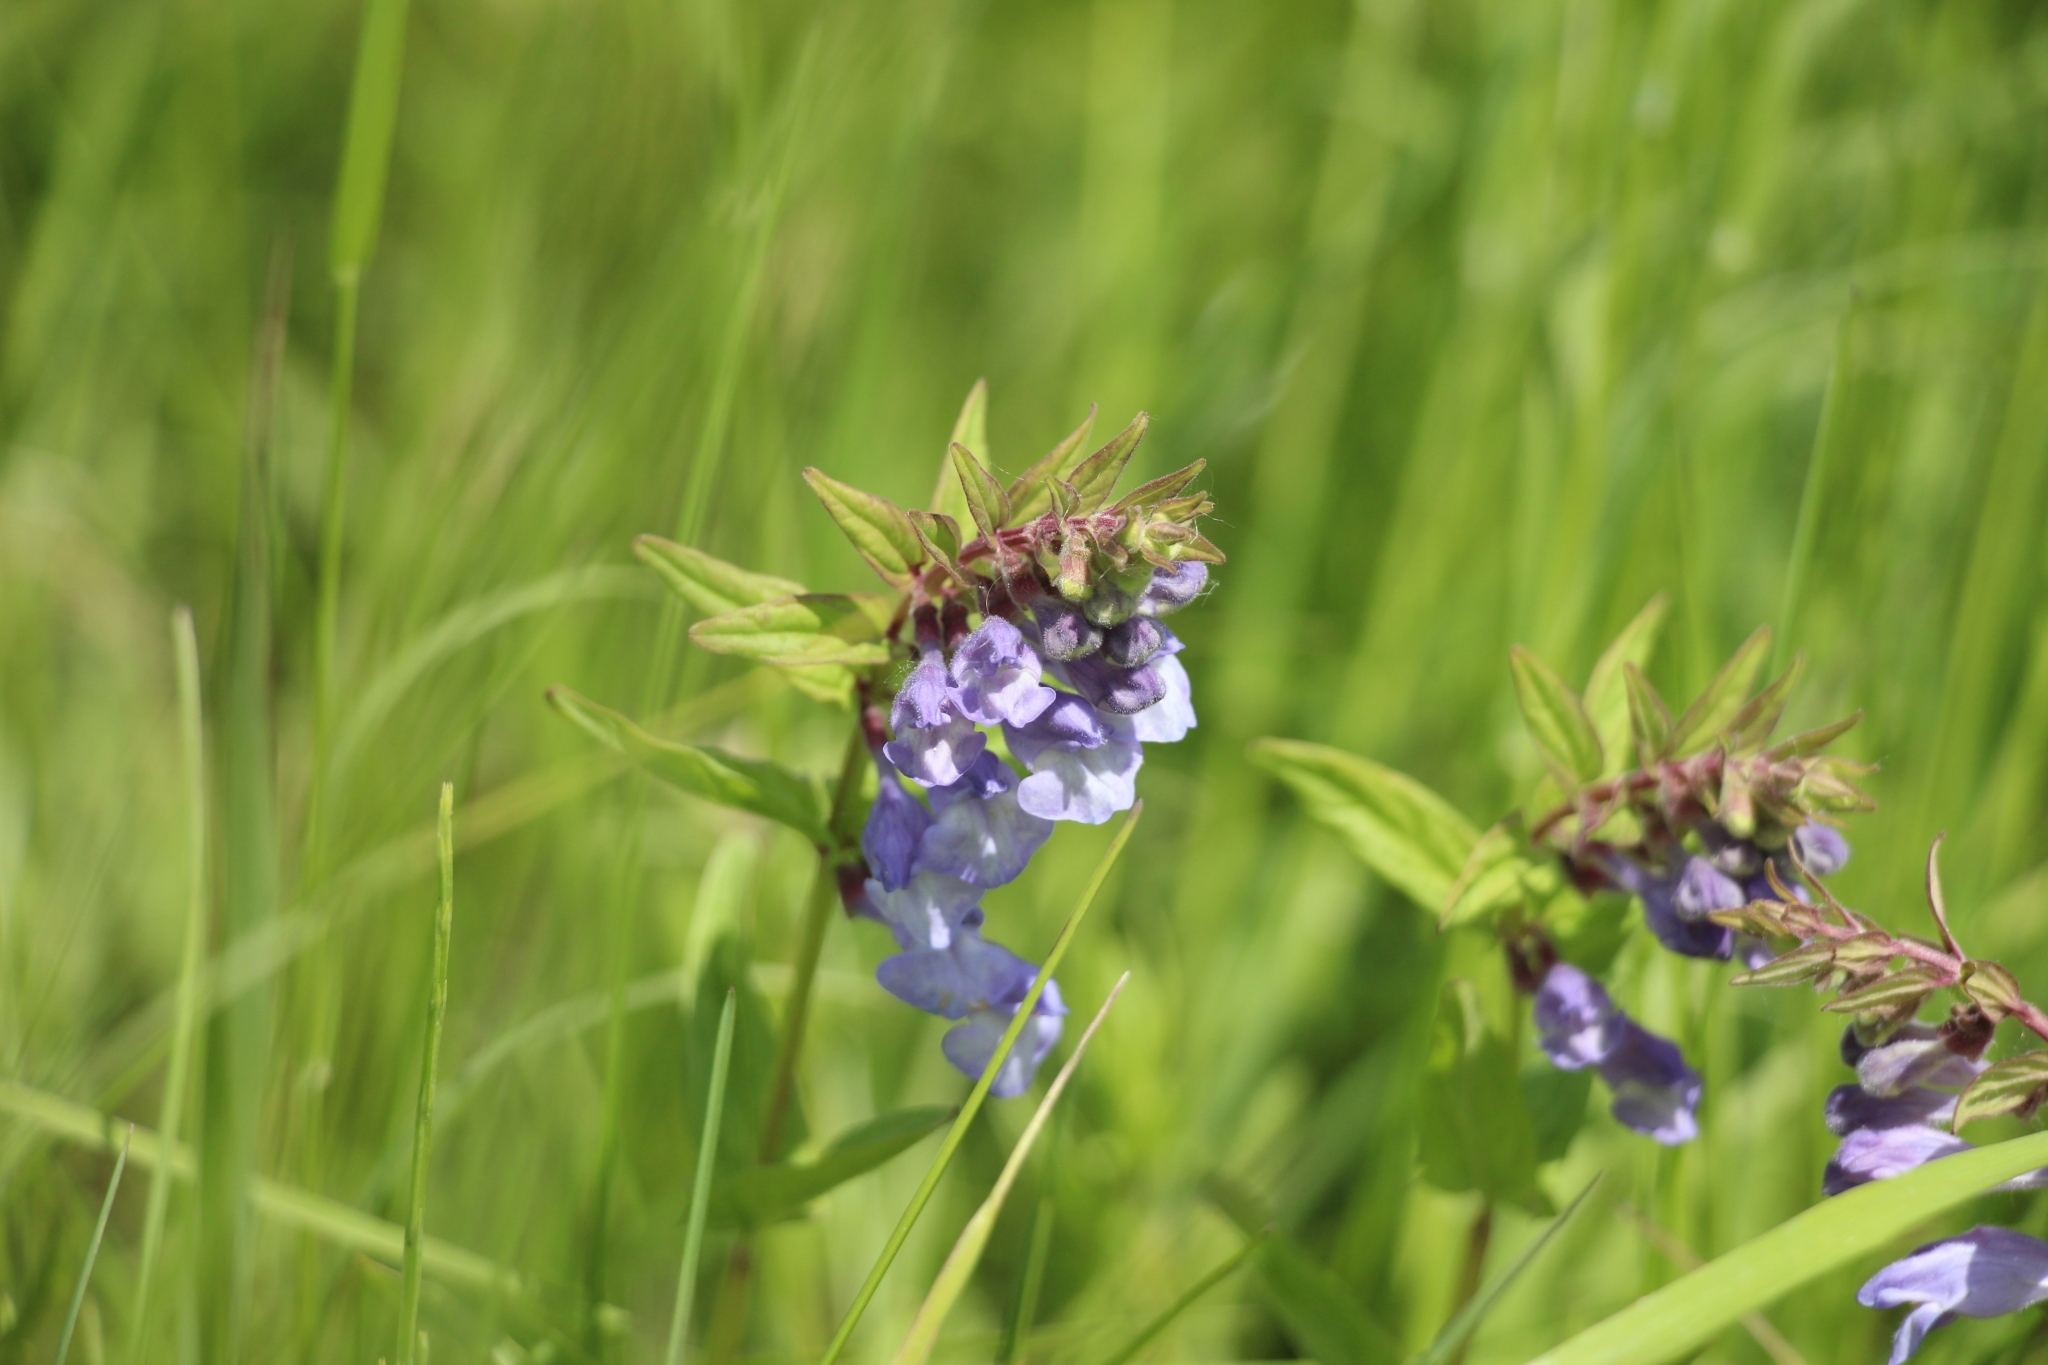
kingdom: Plantae
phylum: Tracheophyta
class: Magnoliopsida
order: Lamiales
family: Lamiaceae
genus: Scutellaria
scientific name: Scutellaria hastifolia
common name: Norfolk skullcap
